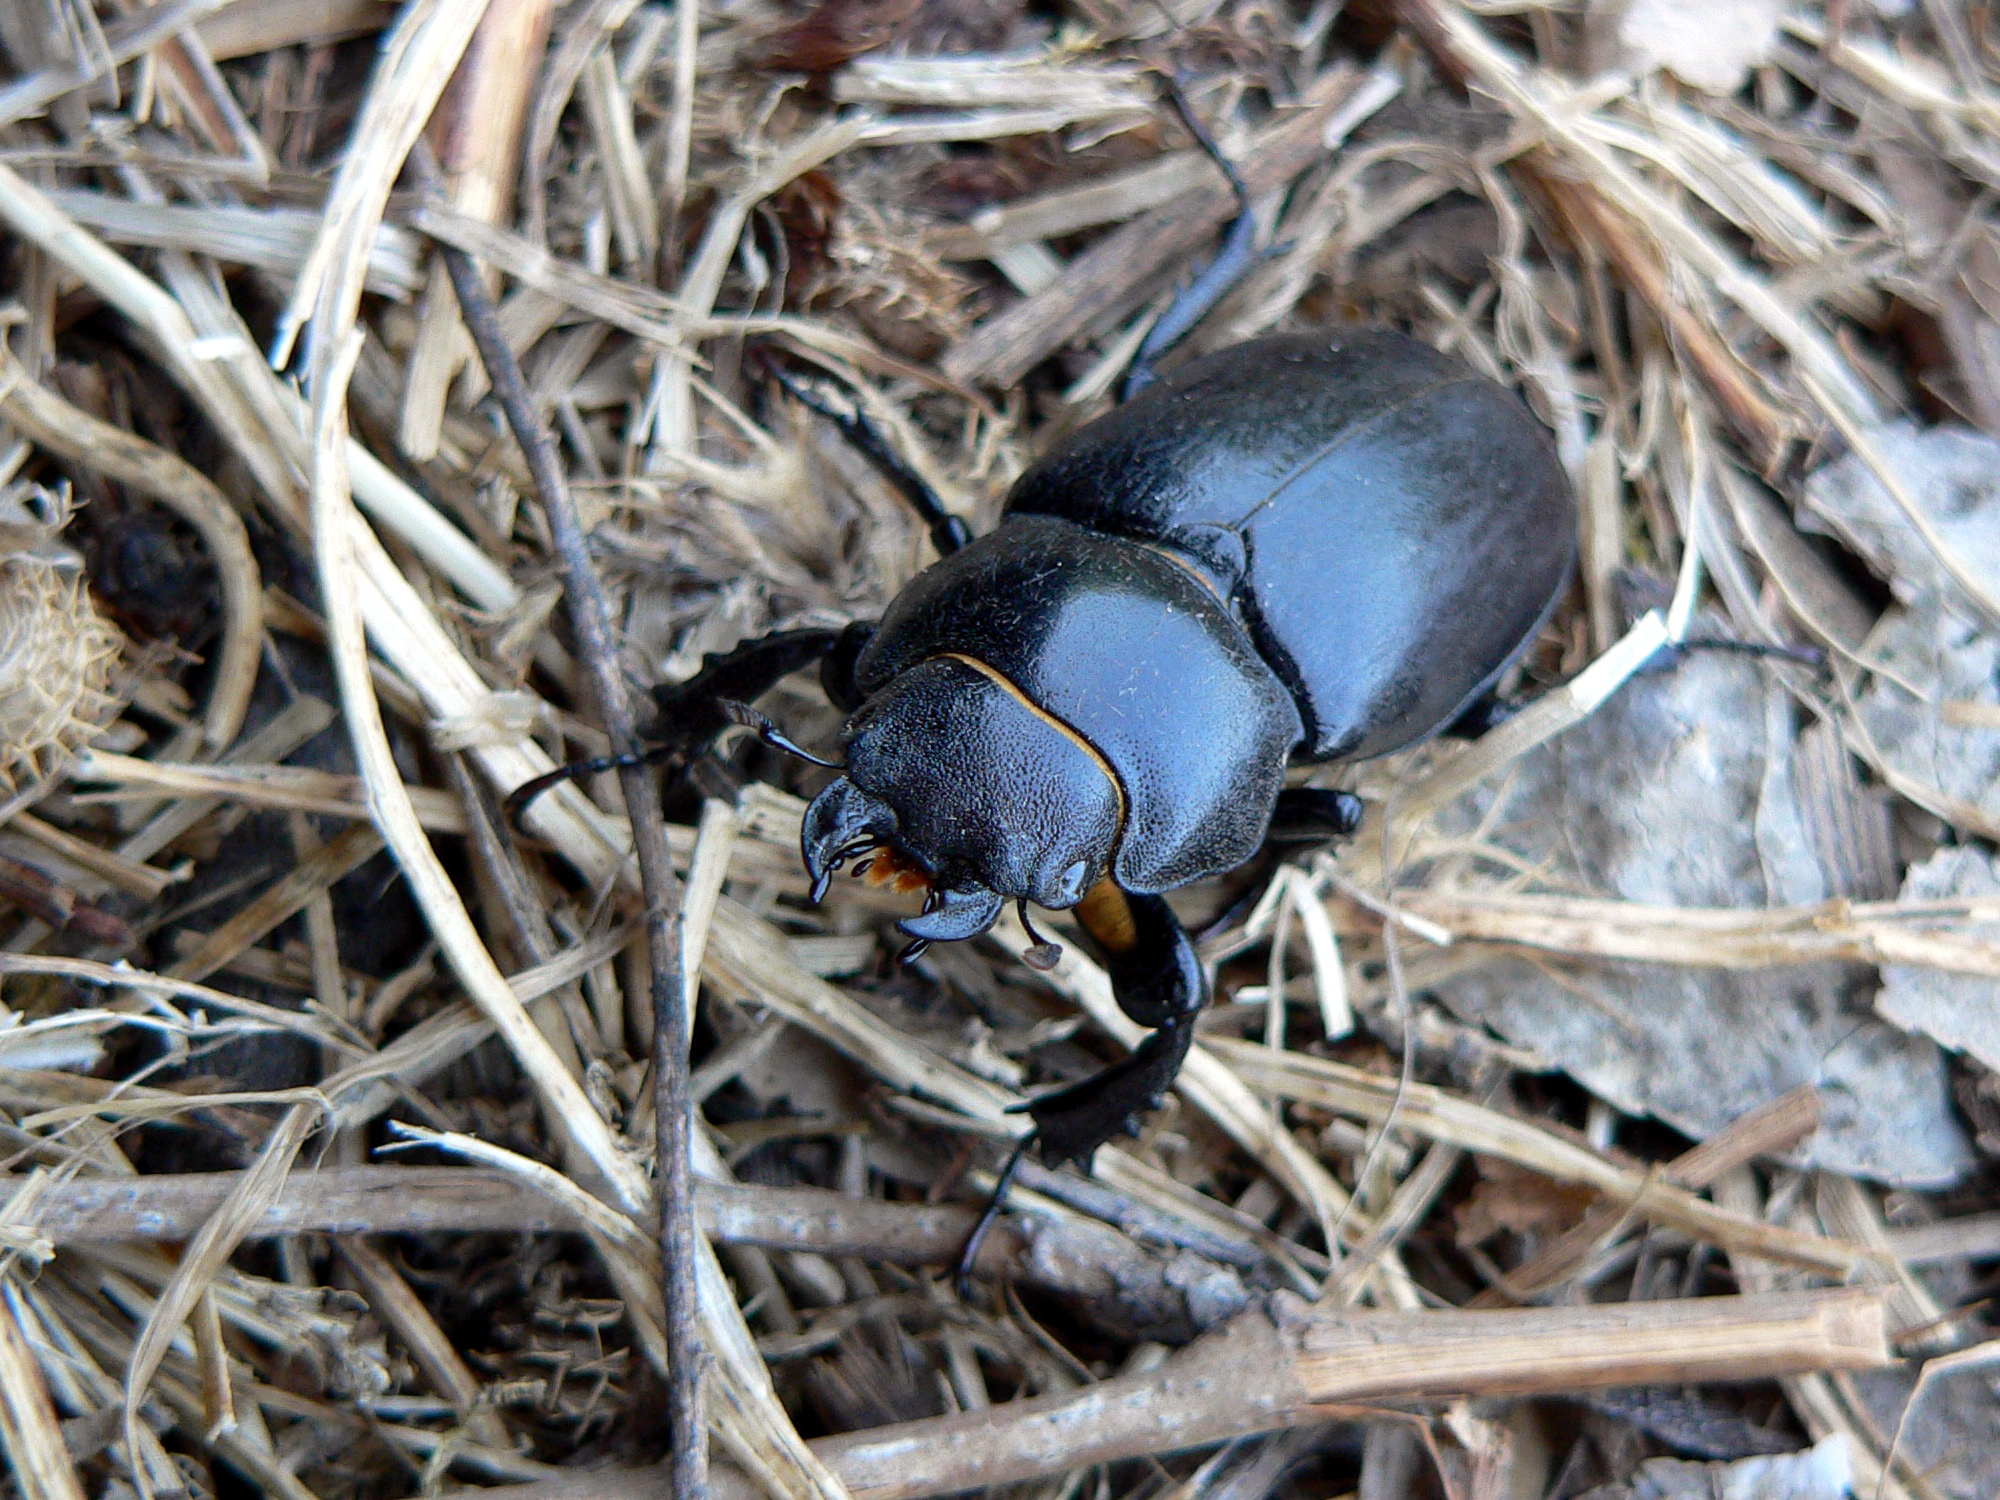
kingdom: Animalia
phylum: Arthropoda
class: Insecta
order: Coleoptera
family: Lucanidae
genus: Lucanus
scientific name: Lucanus tetraodon
